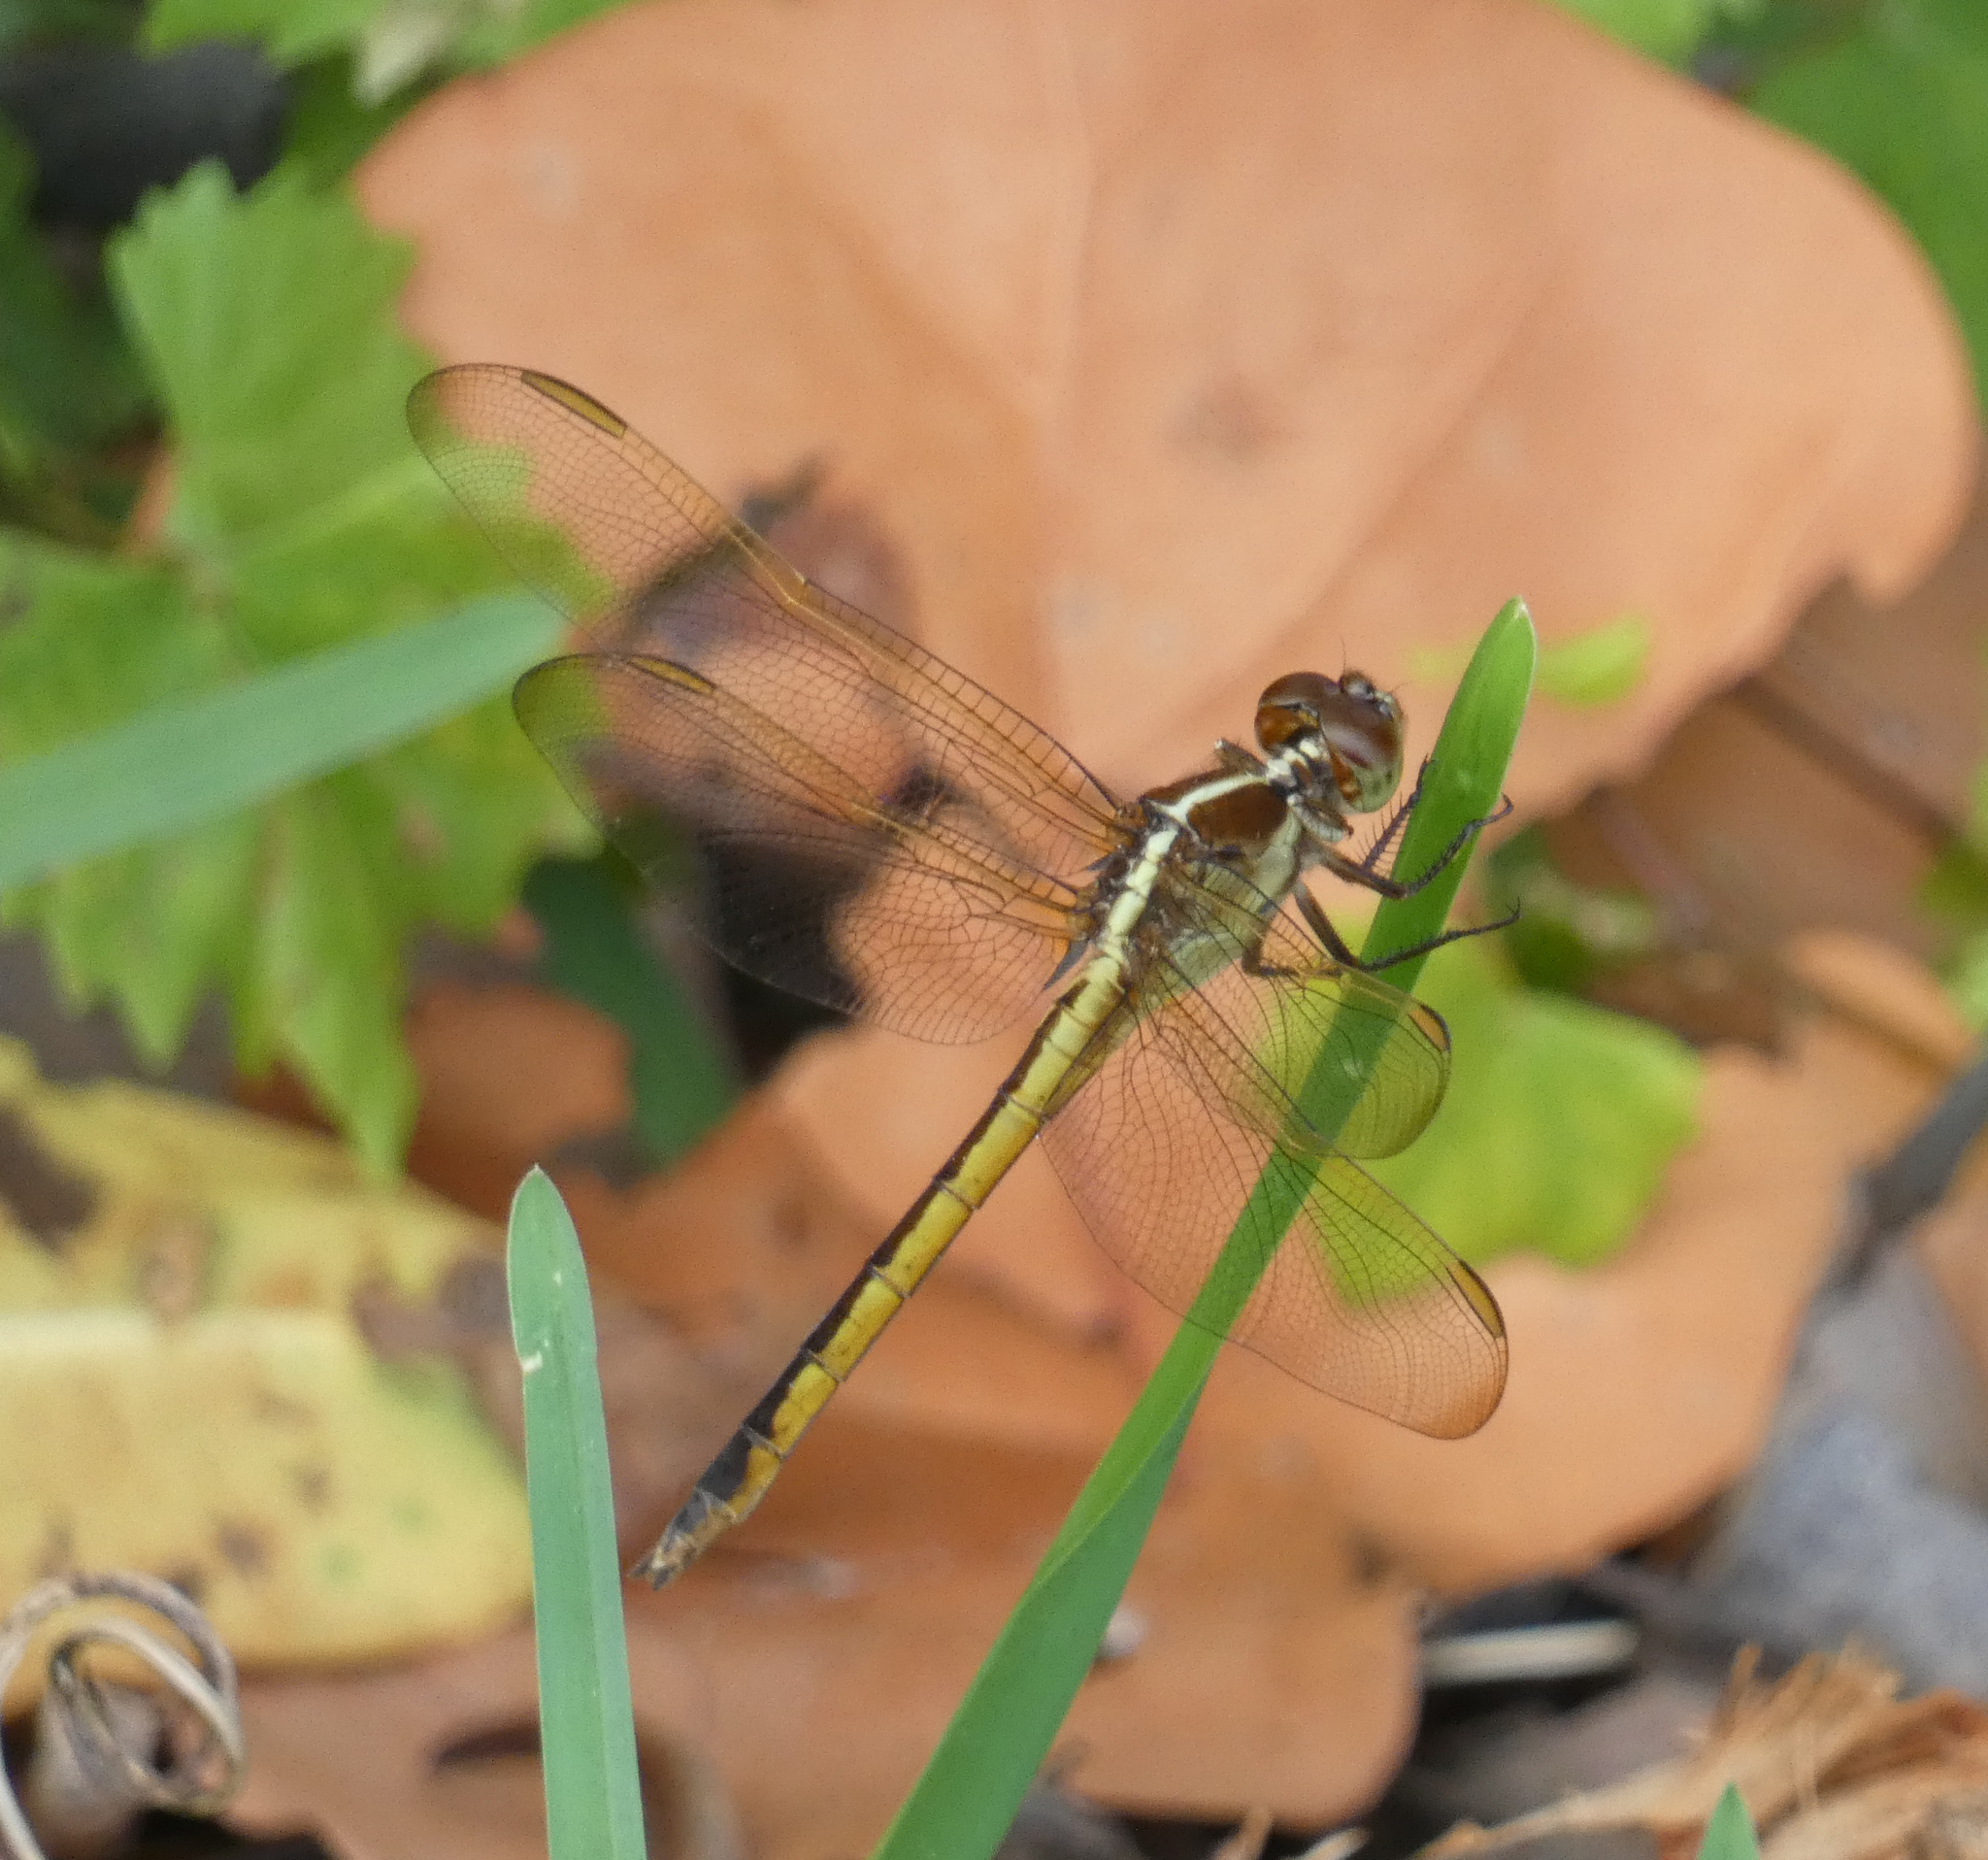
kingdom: Animalia
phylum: Arthropoda
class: Insecta
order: Odonata
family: Libellulidae
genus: Libellula
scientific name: Libellula needhami
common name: Needham's skimmer
